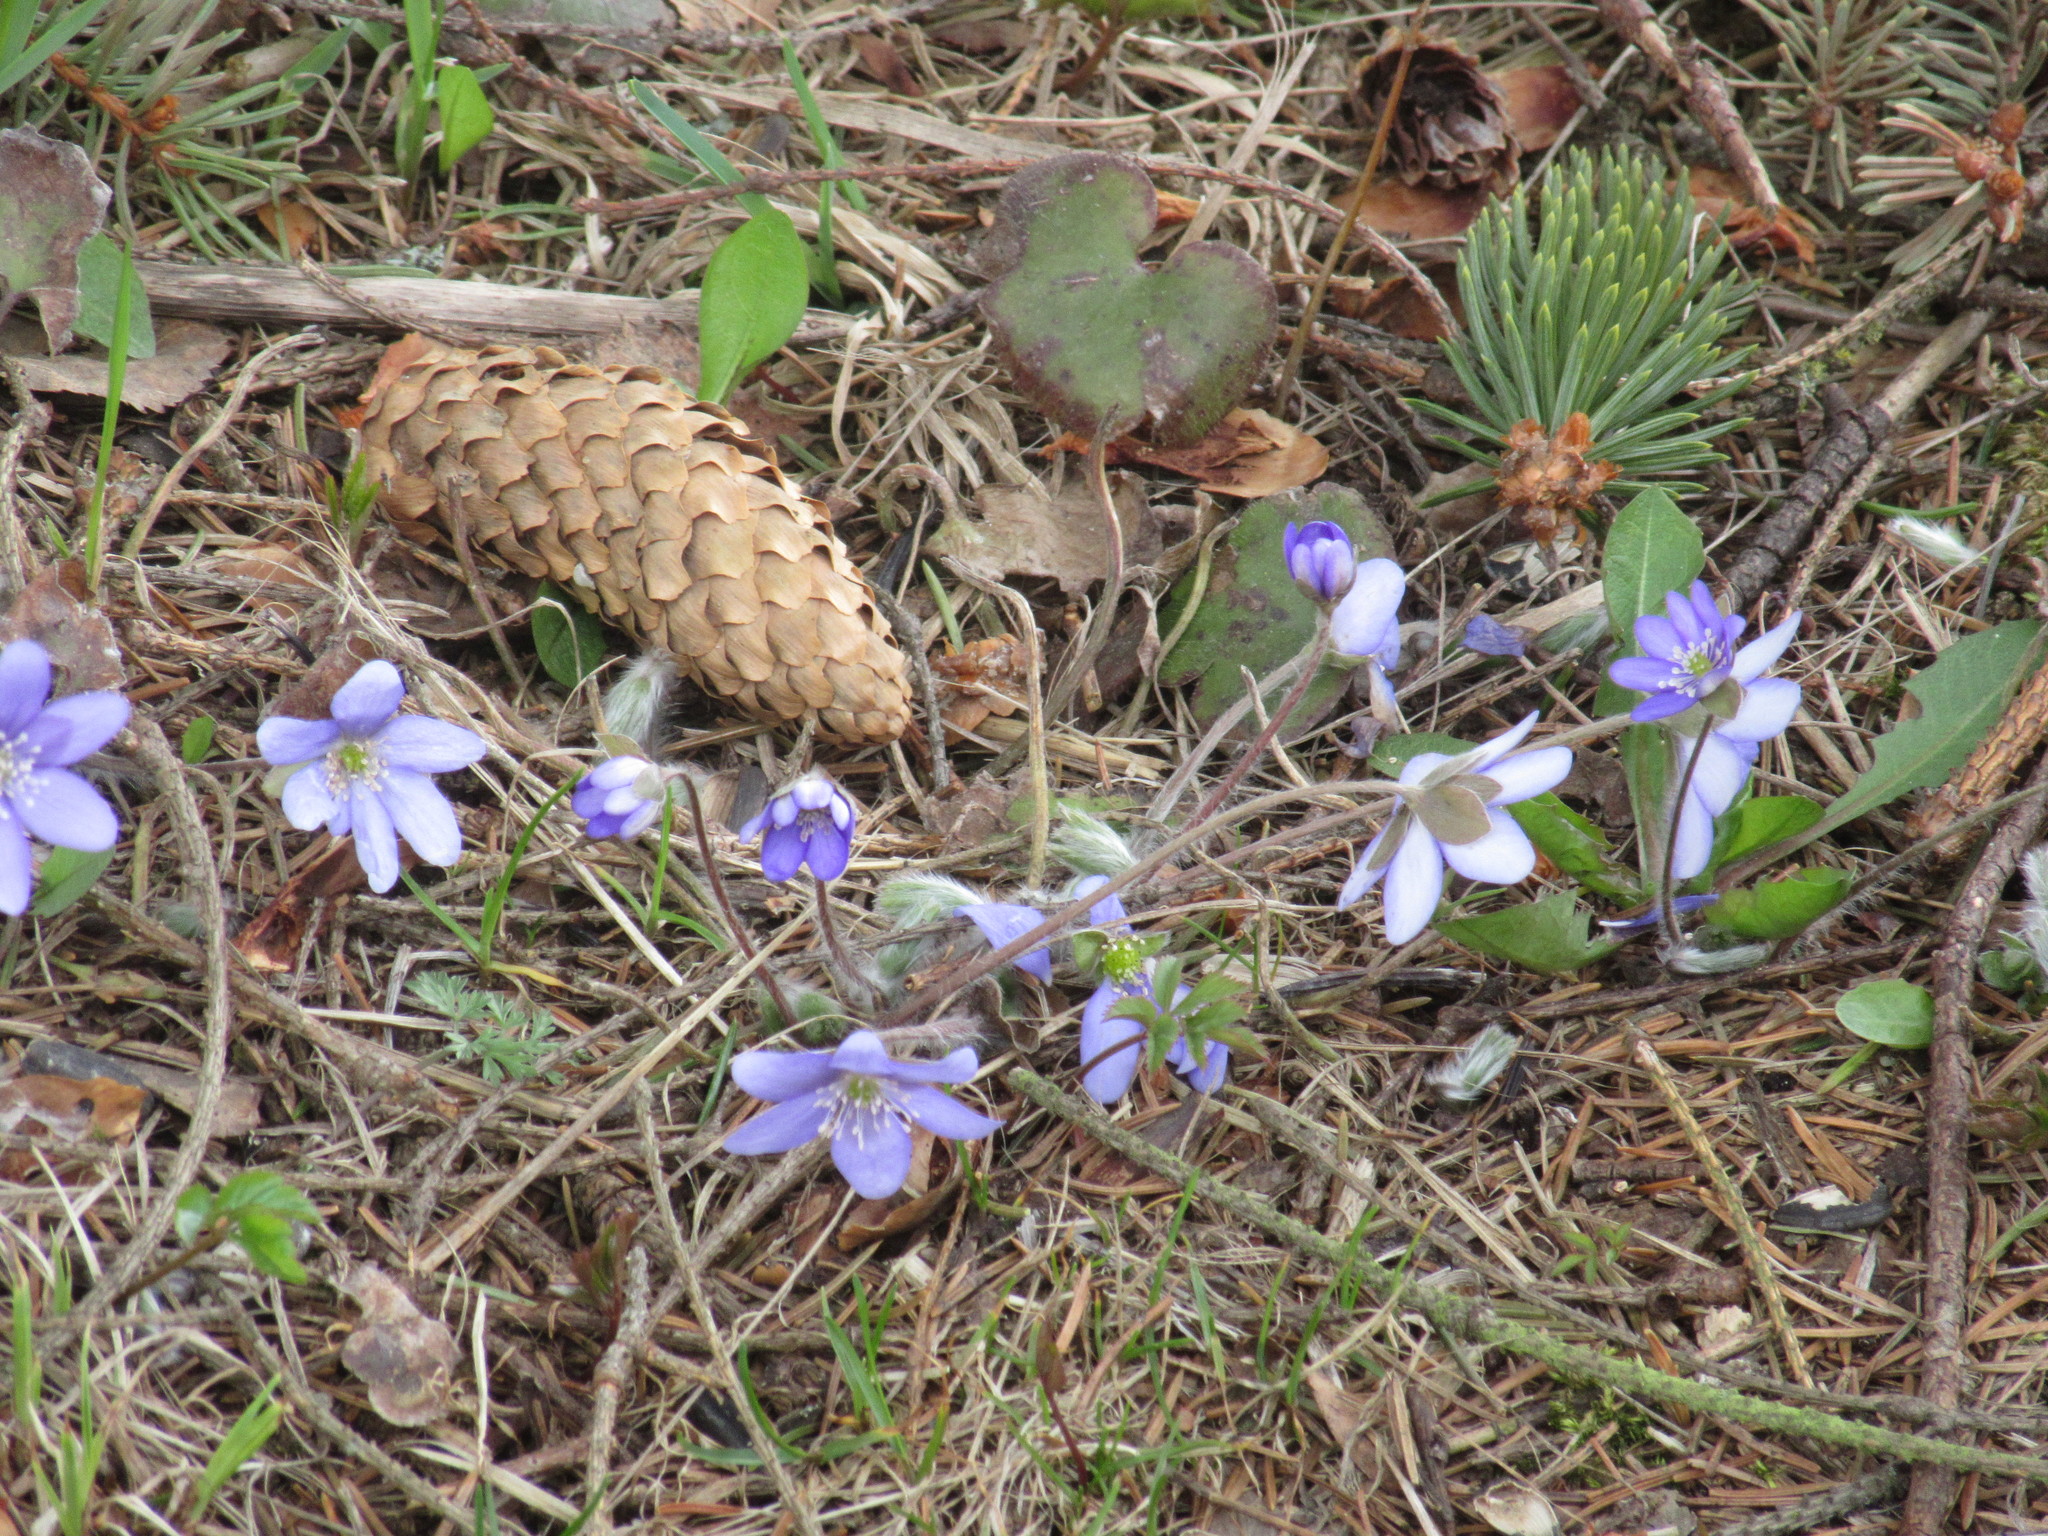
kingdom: Plantae
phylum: Tracheophyta
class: Magnoliopsida
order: Ranunculales
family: Ranunculaceae
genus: Hepatica
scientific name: Hepatica nobilis
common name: Liverleaf
